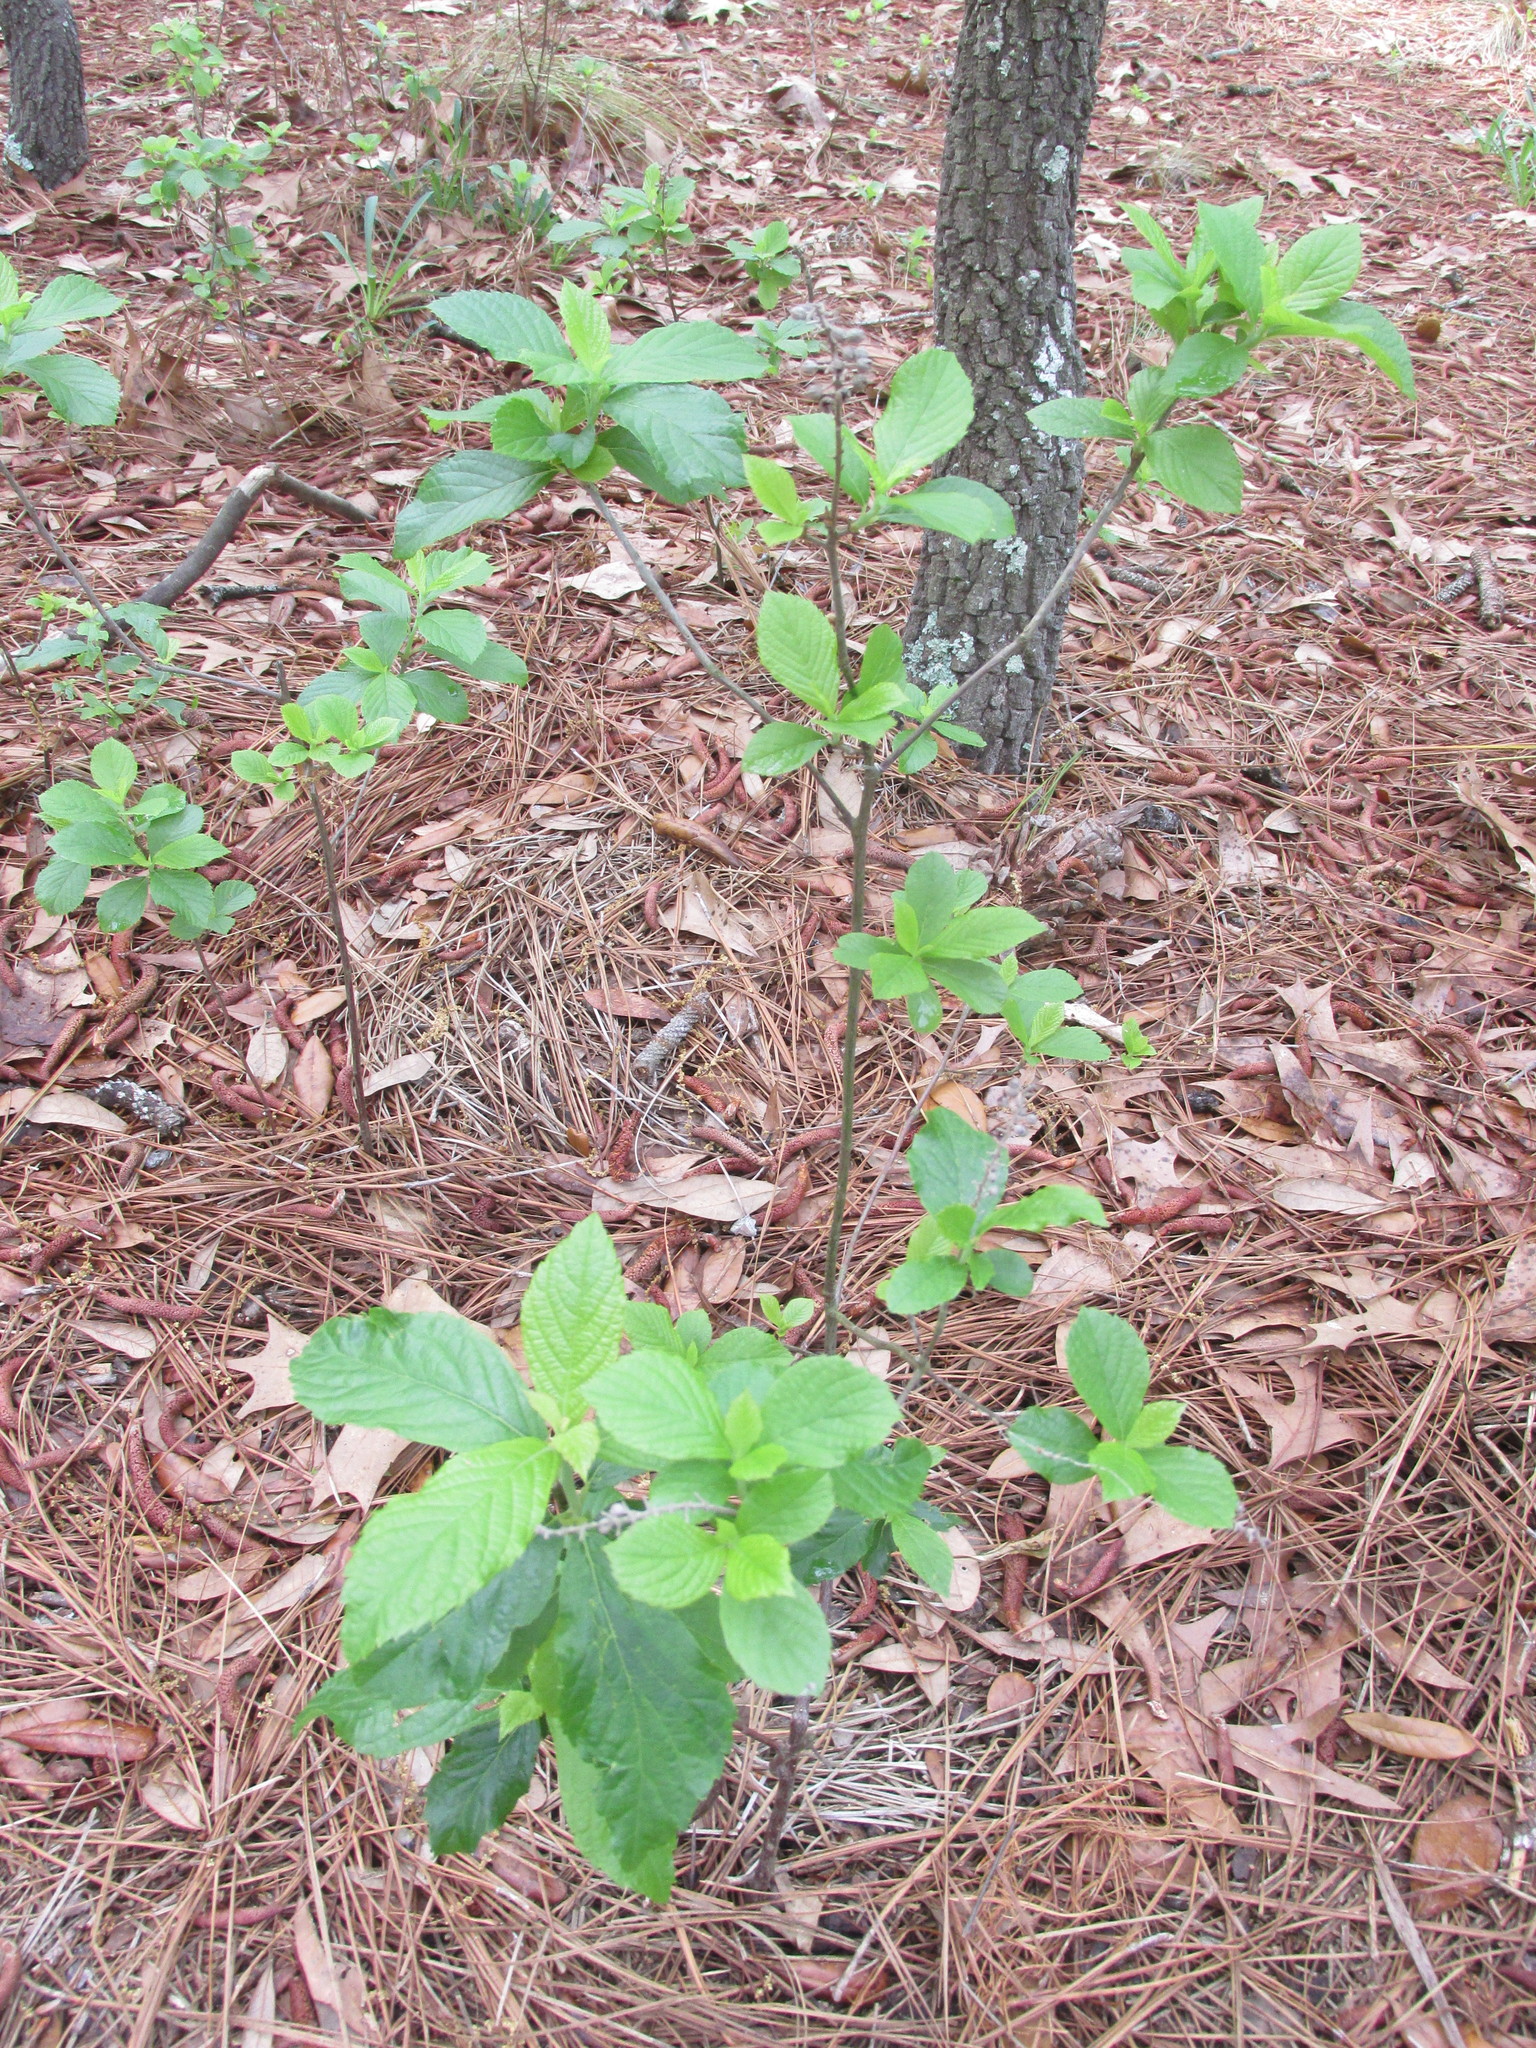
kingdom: Plantae
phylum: Tracheophyta
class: Magnoliopsida
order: Ericales
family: Clethraceae
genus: Clethra
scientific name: Clethra alnifolia
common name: Sweet pepperbush
